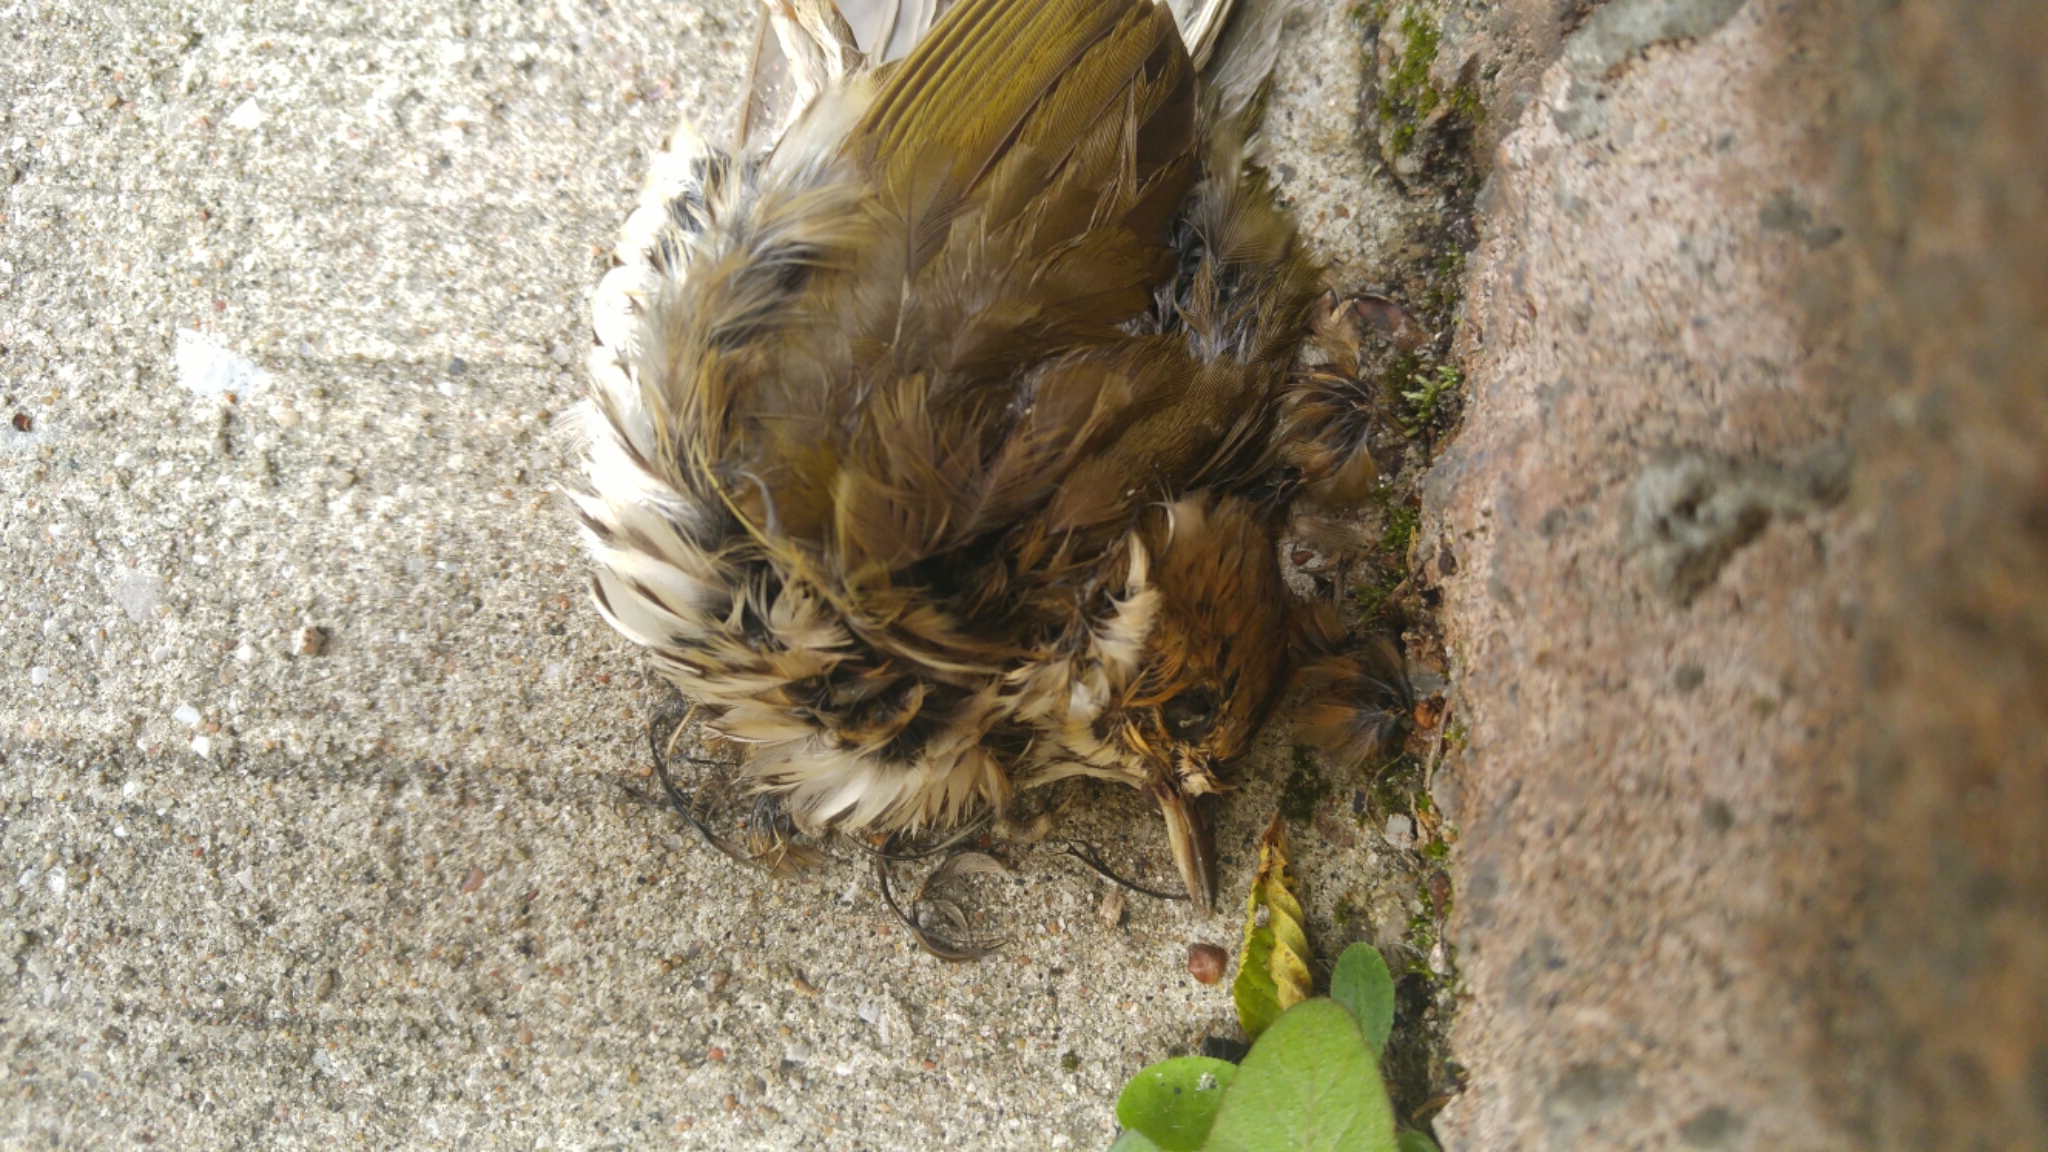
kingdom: Animalia
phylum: Chordata
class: Aves
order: Passeriformes
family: Parulidae
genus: Seiurus
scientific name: Seiurus aurocapilla
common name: Ovenbird
